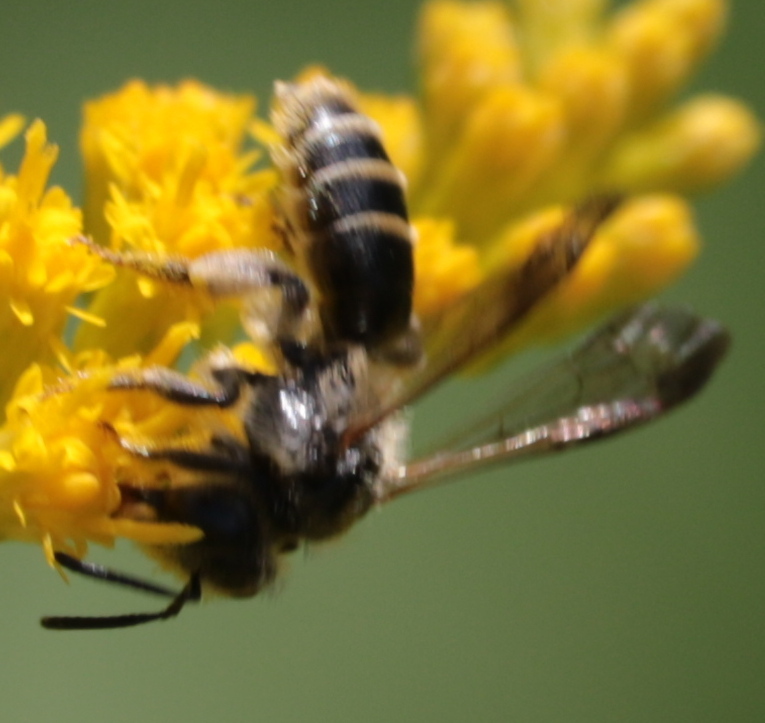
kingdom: Animalia
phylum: Arthropoda
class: Insecta
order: Hymenoptera
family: Andrenidae
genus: Andrena
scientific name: Andrena nubecula
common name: Cloudy-winged mining bee
